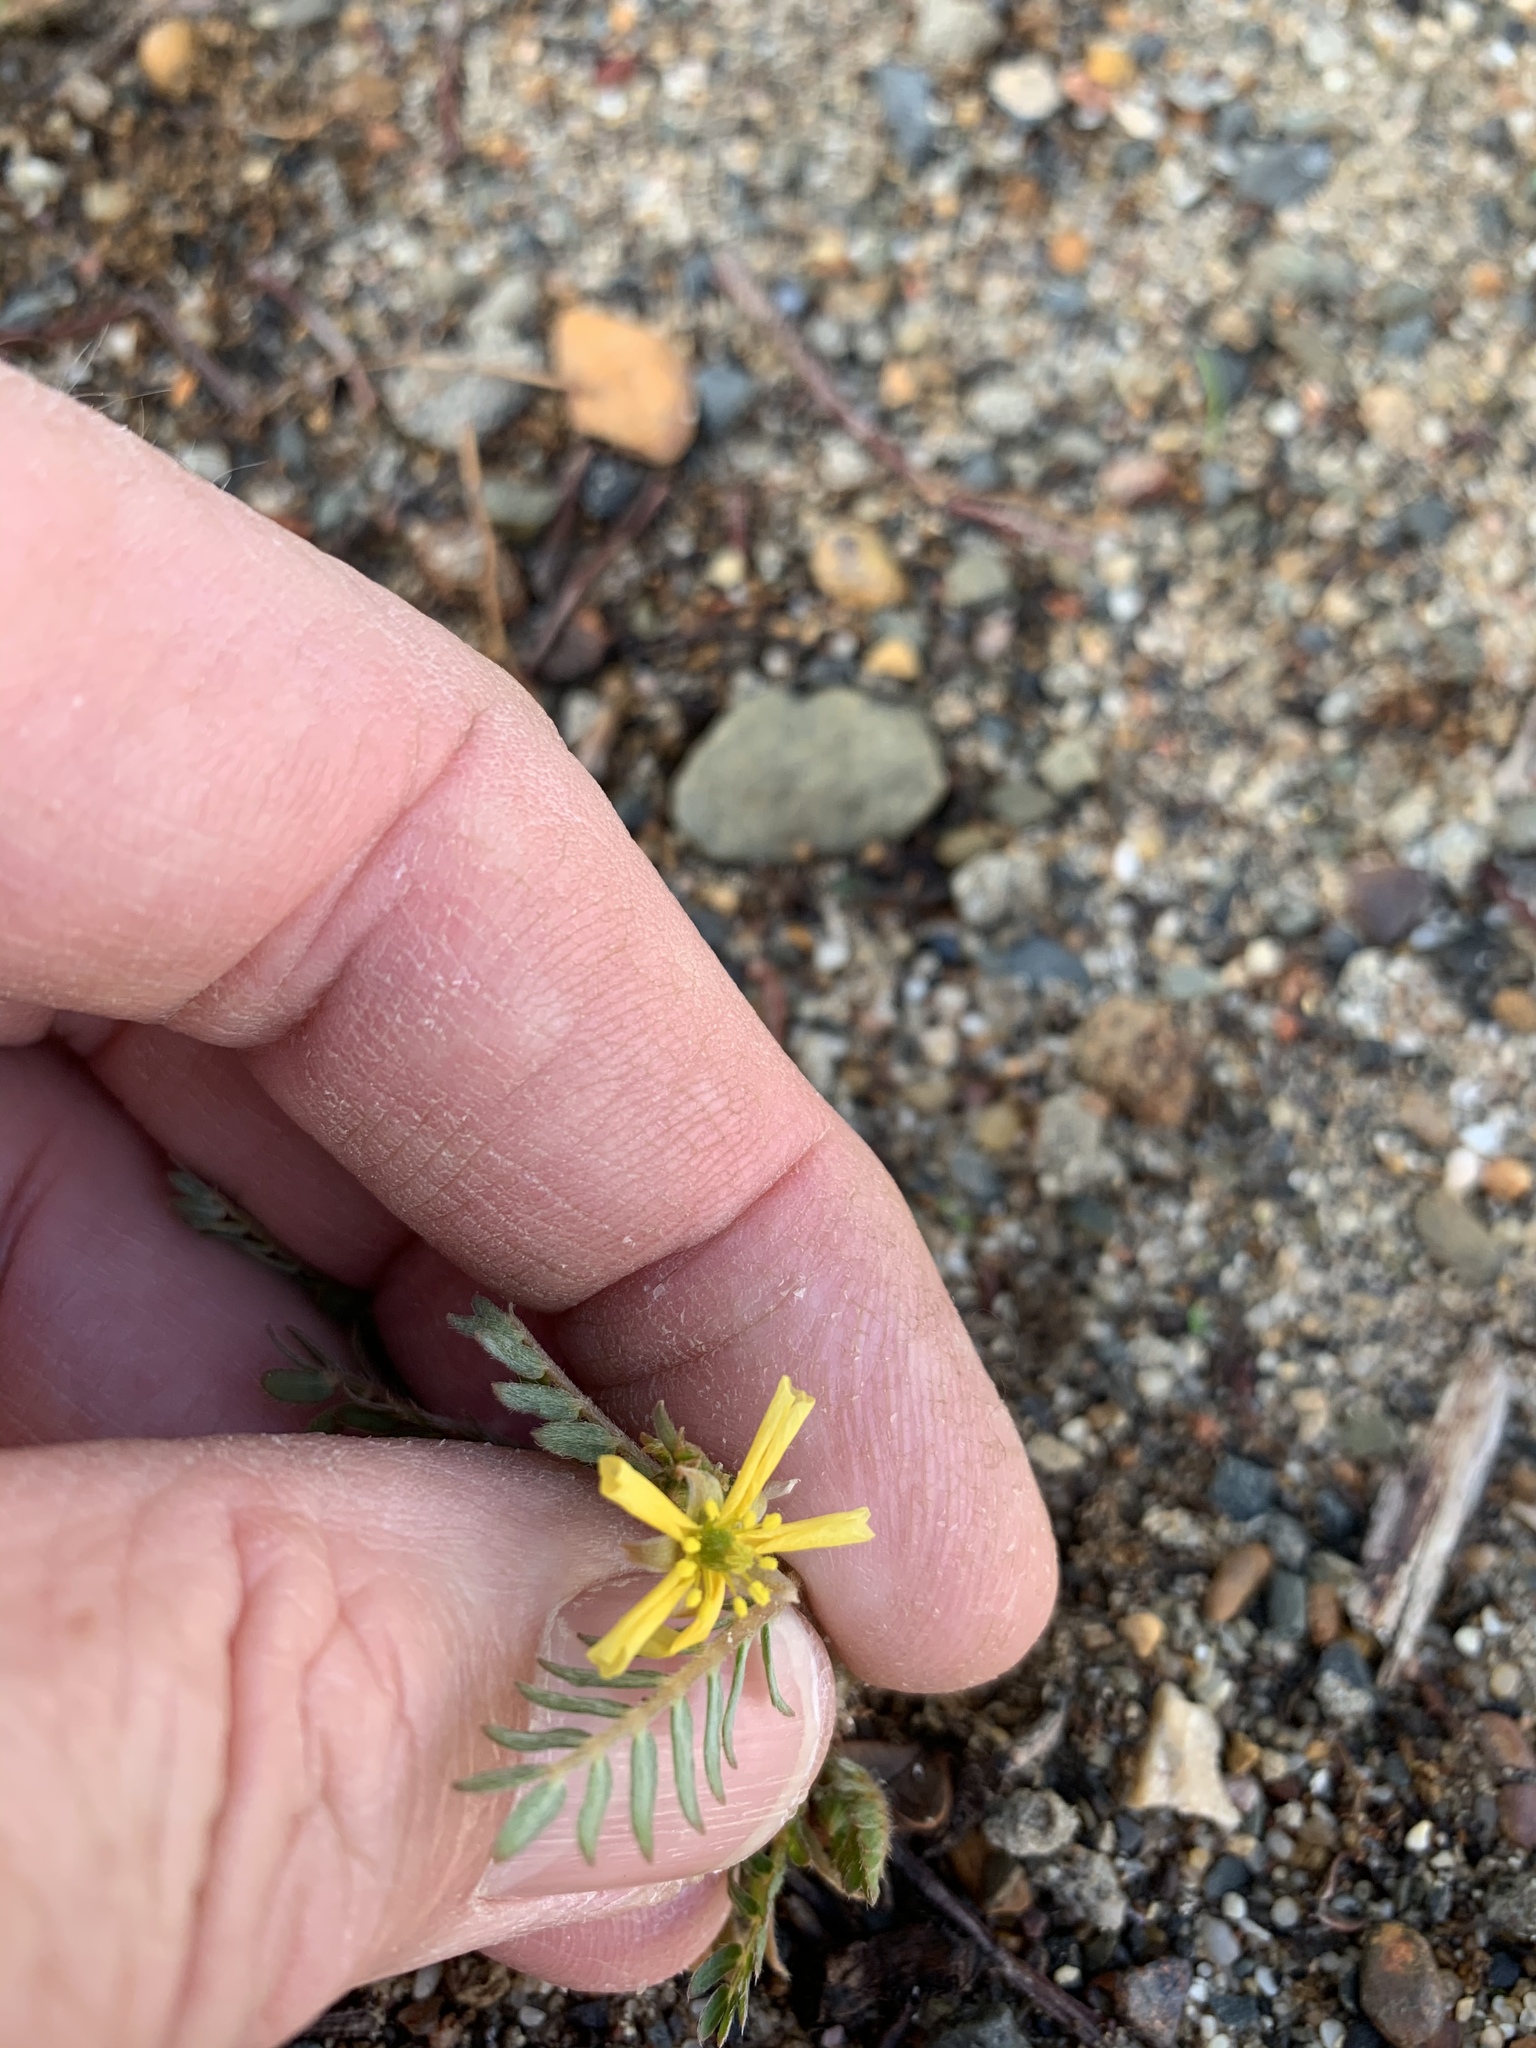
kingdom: Plantae
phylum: Tracheophyta
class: Magnoliopsida
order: Zygophyllales
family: Zygophyllaceae
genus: Tribulus
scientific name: Tribulus terrestris
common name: Puncturevine
